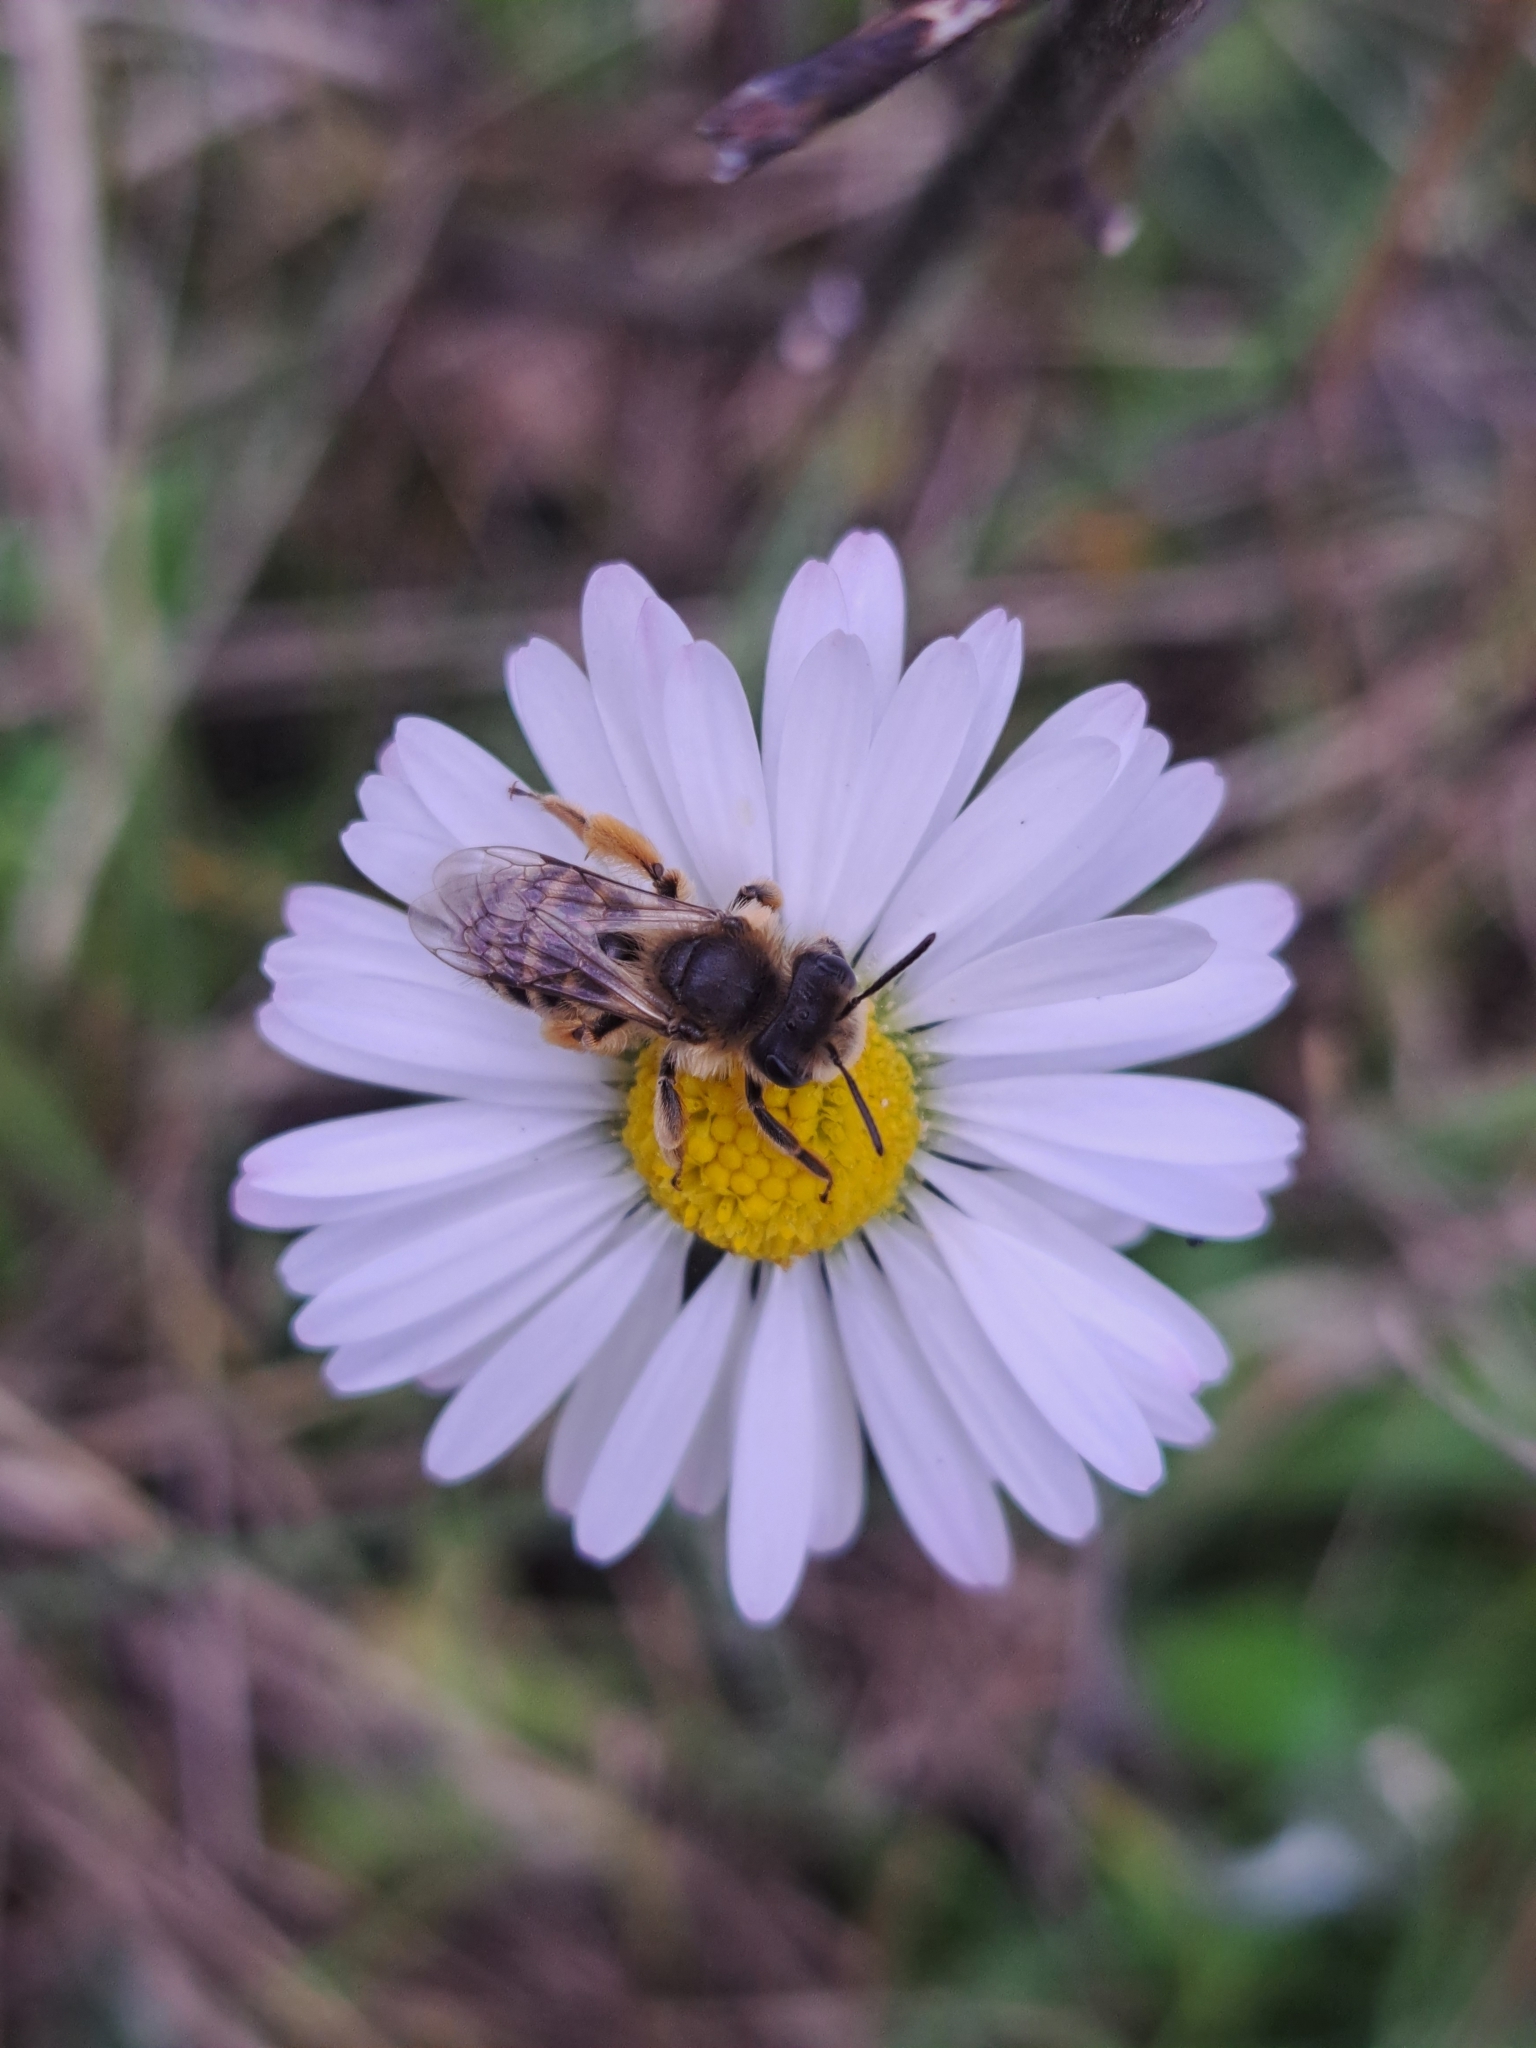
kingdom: Animalia
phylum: Arthropoda
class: Insecta
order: Hymenoptera
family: Andrenidae
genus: Andrena
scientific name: Andrena flavipes
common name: Yellow-legged mining bee
